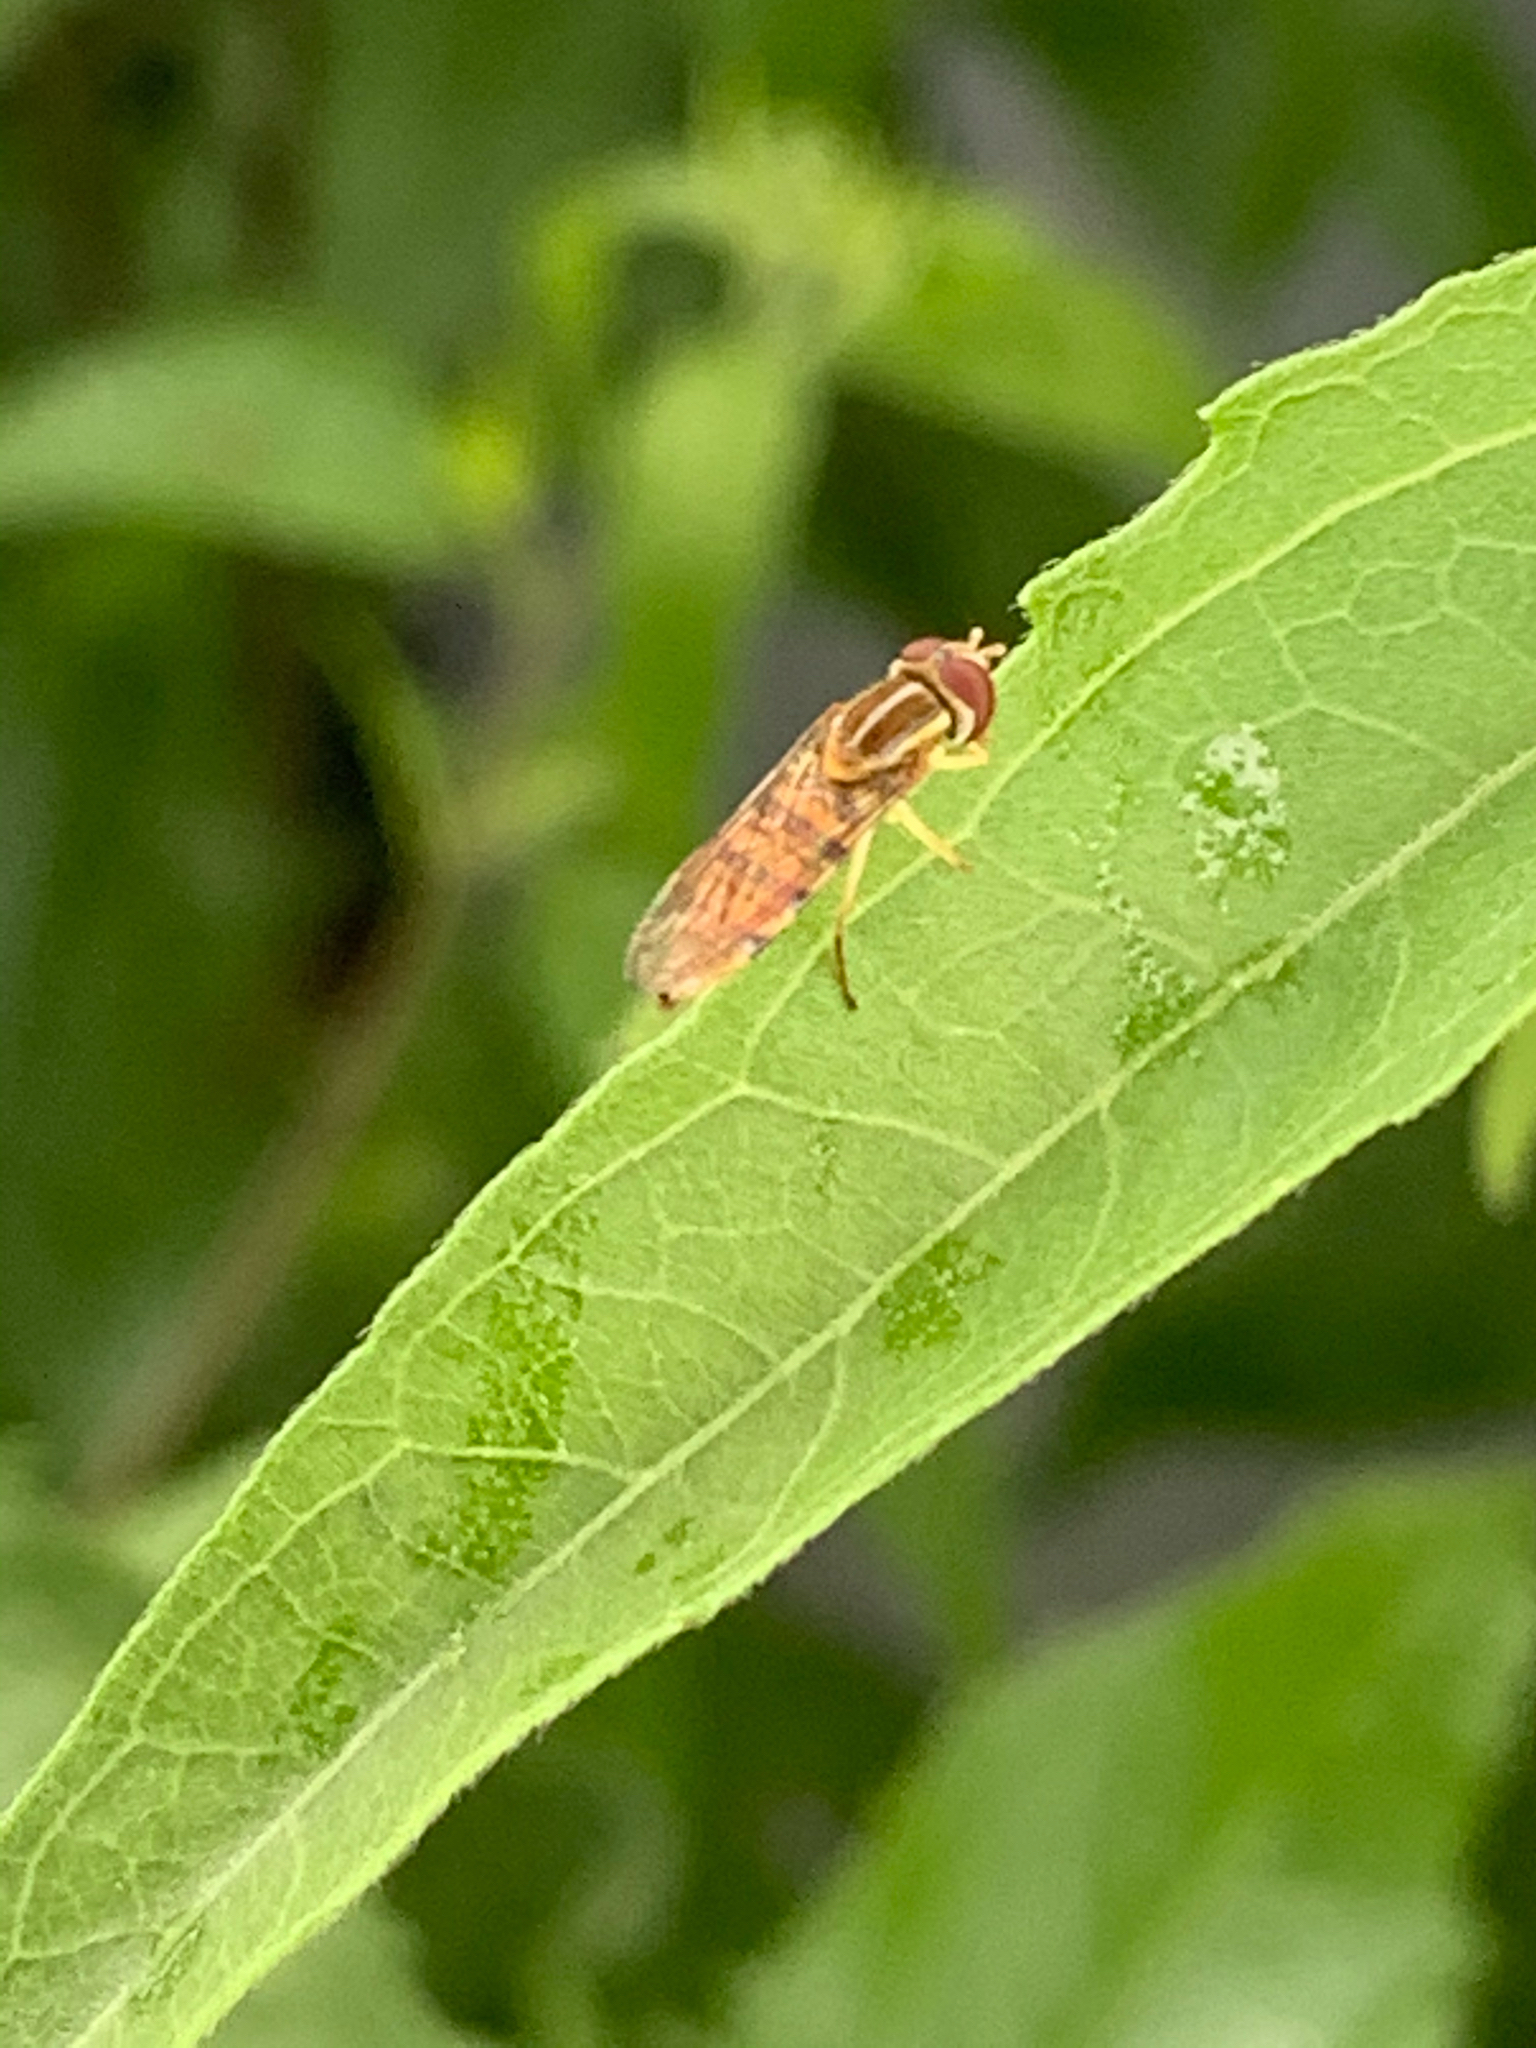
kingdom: Animalia
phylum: Arthropoda
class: Insecta
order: Diptera
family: Syrphidae
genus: Toxomerus
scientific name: Toxomerus politus
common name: Maize calligrapher
